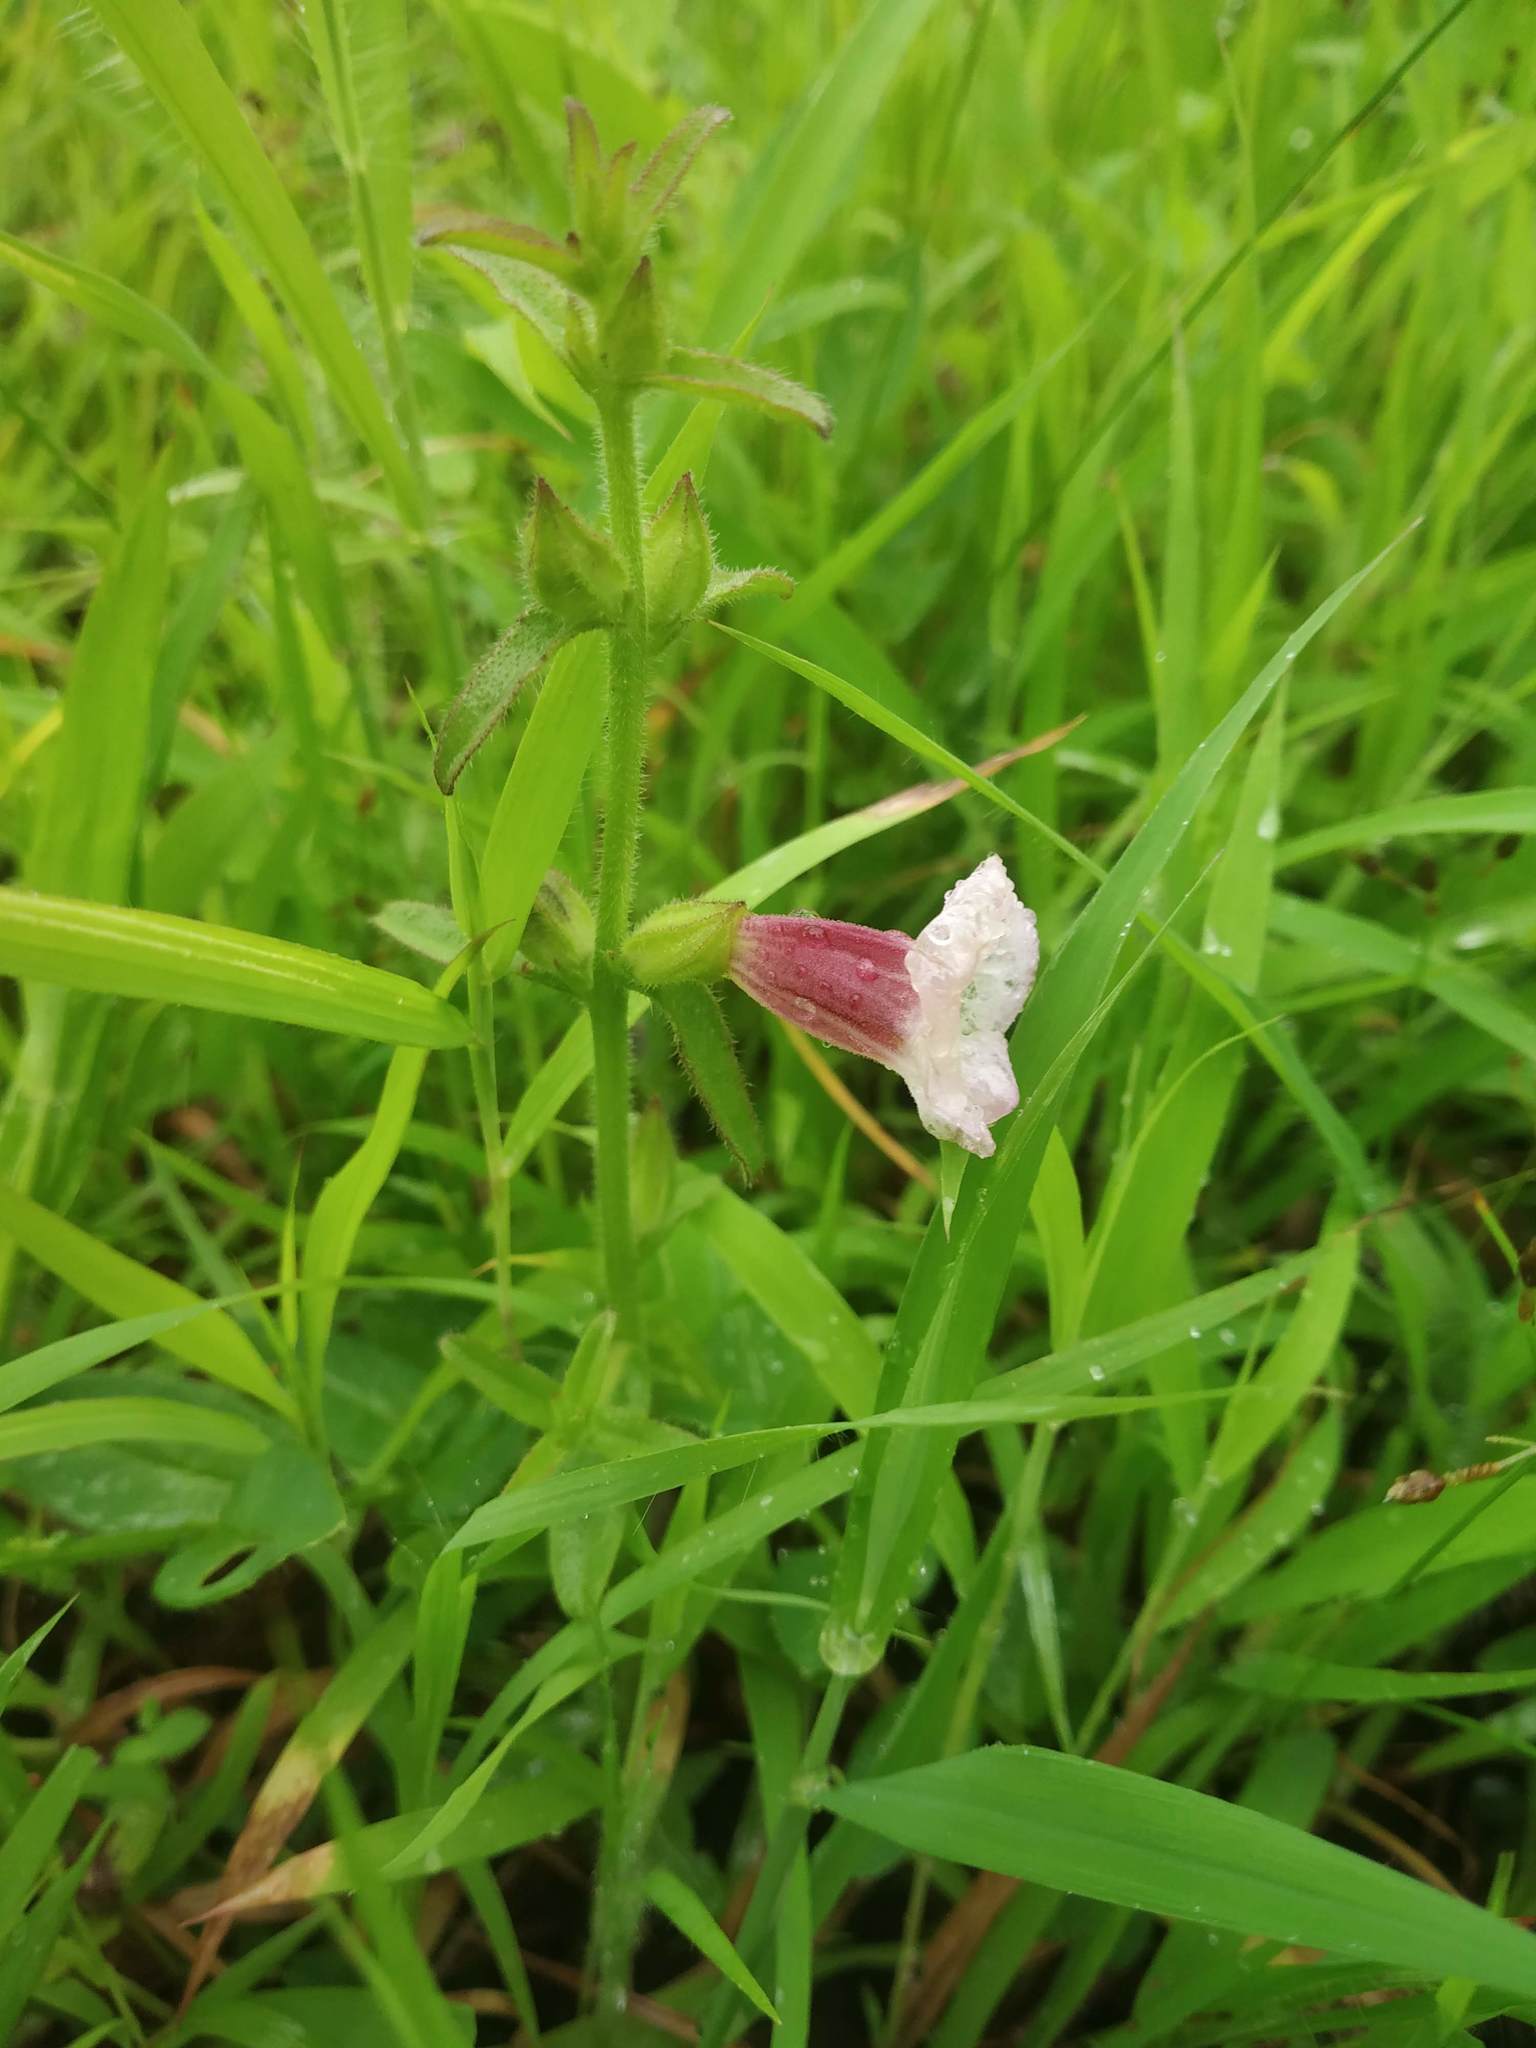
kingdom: Plantae
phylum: Tracheophyta
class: Magnoliopsida
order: Lamiales
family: Orobanchaceae
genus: Centranthera
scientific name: Centranthera indica
